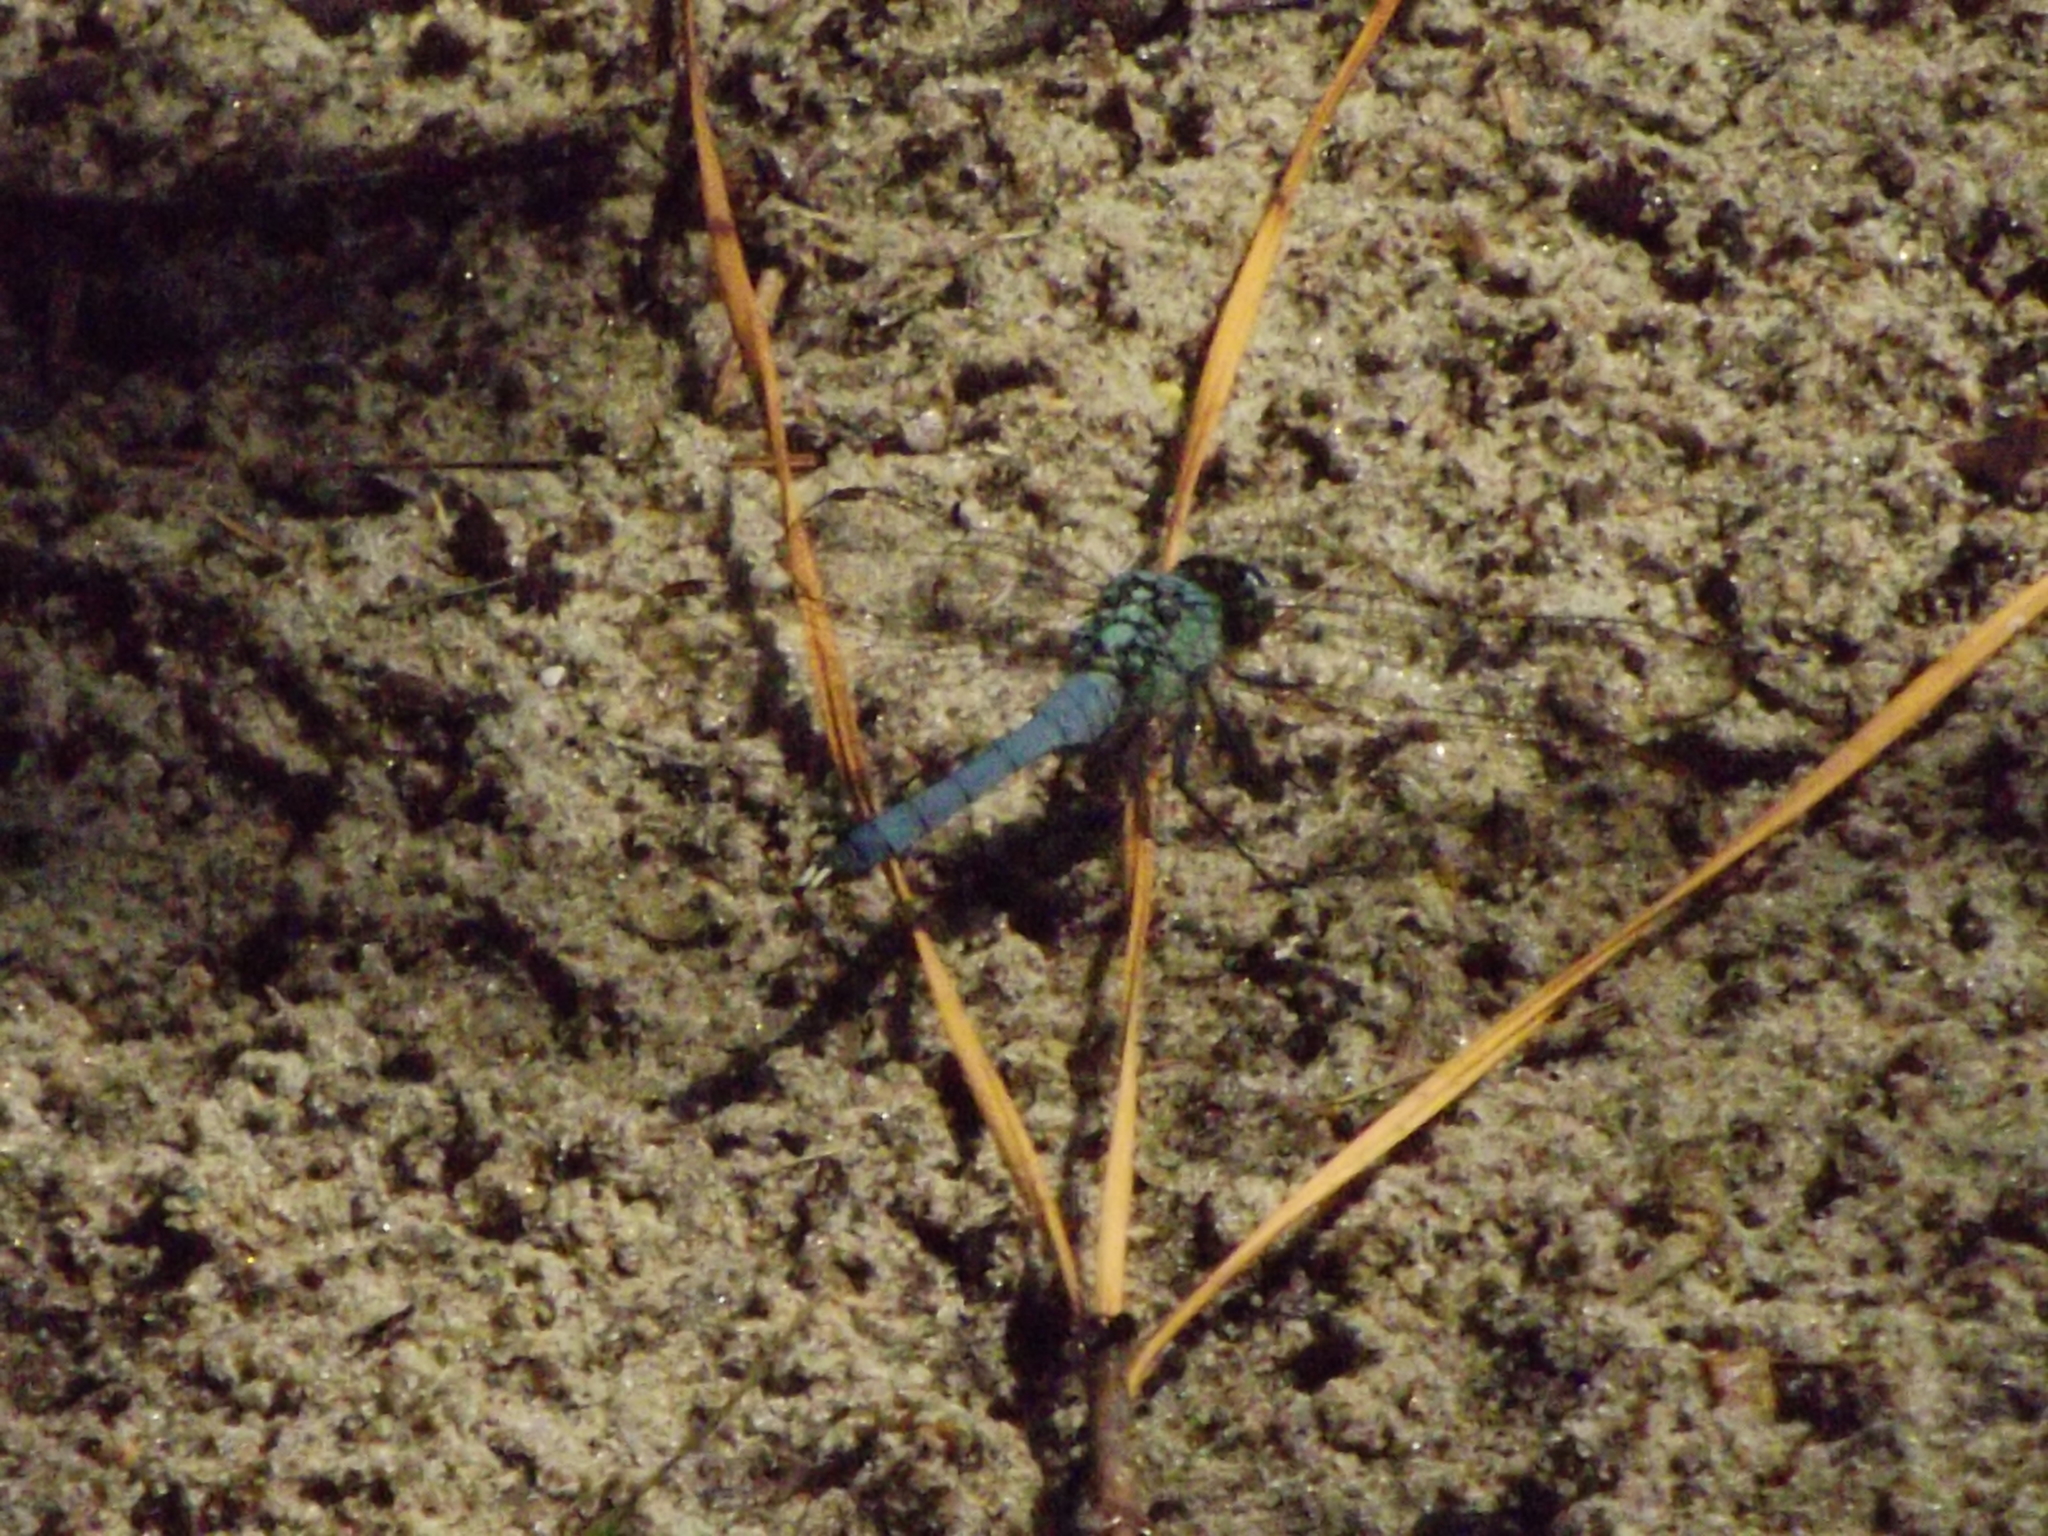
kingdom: Animalia
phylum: Arthropoda
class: Insecta
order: Odonata
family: Libellulidae
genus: Erythemis
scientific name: Erythemis simplicicollis
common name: Eastern pondhawk
